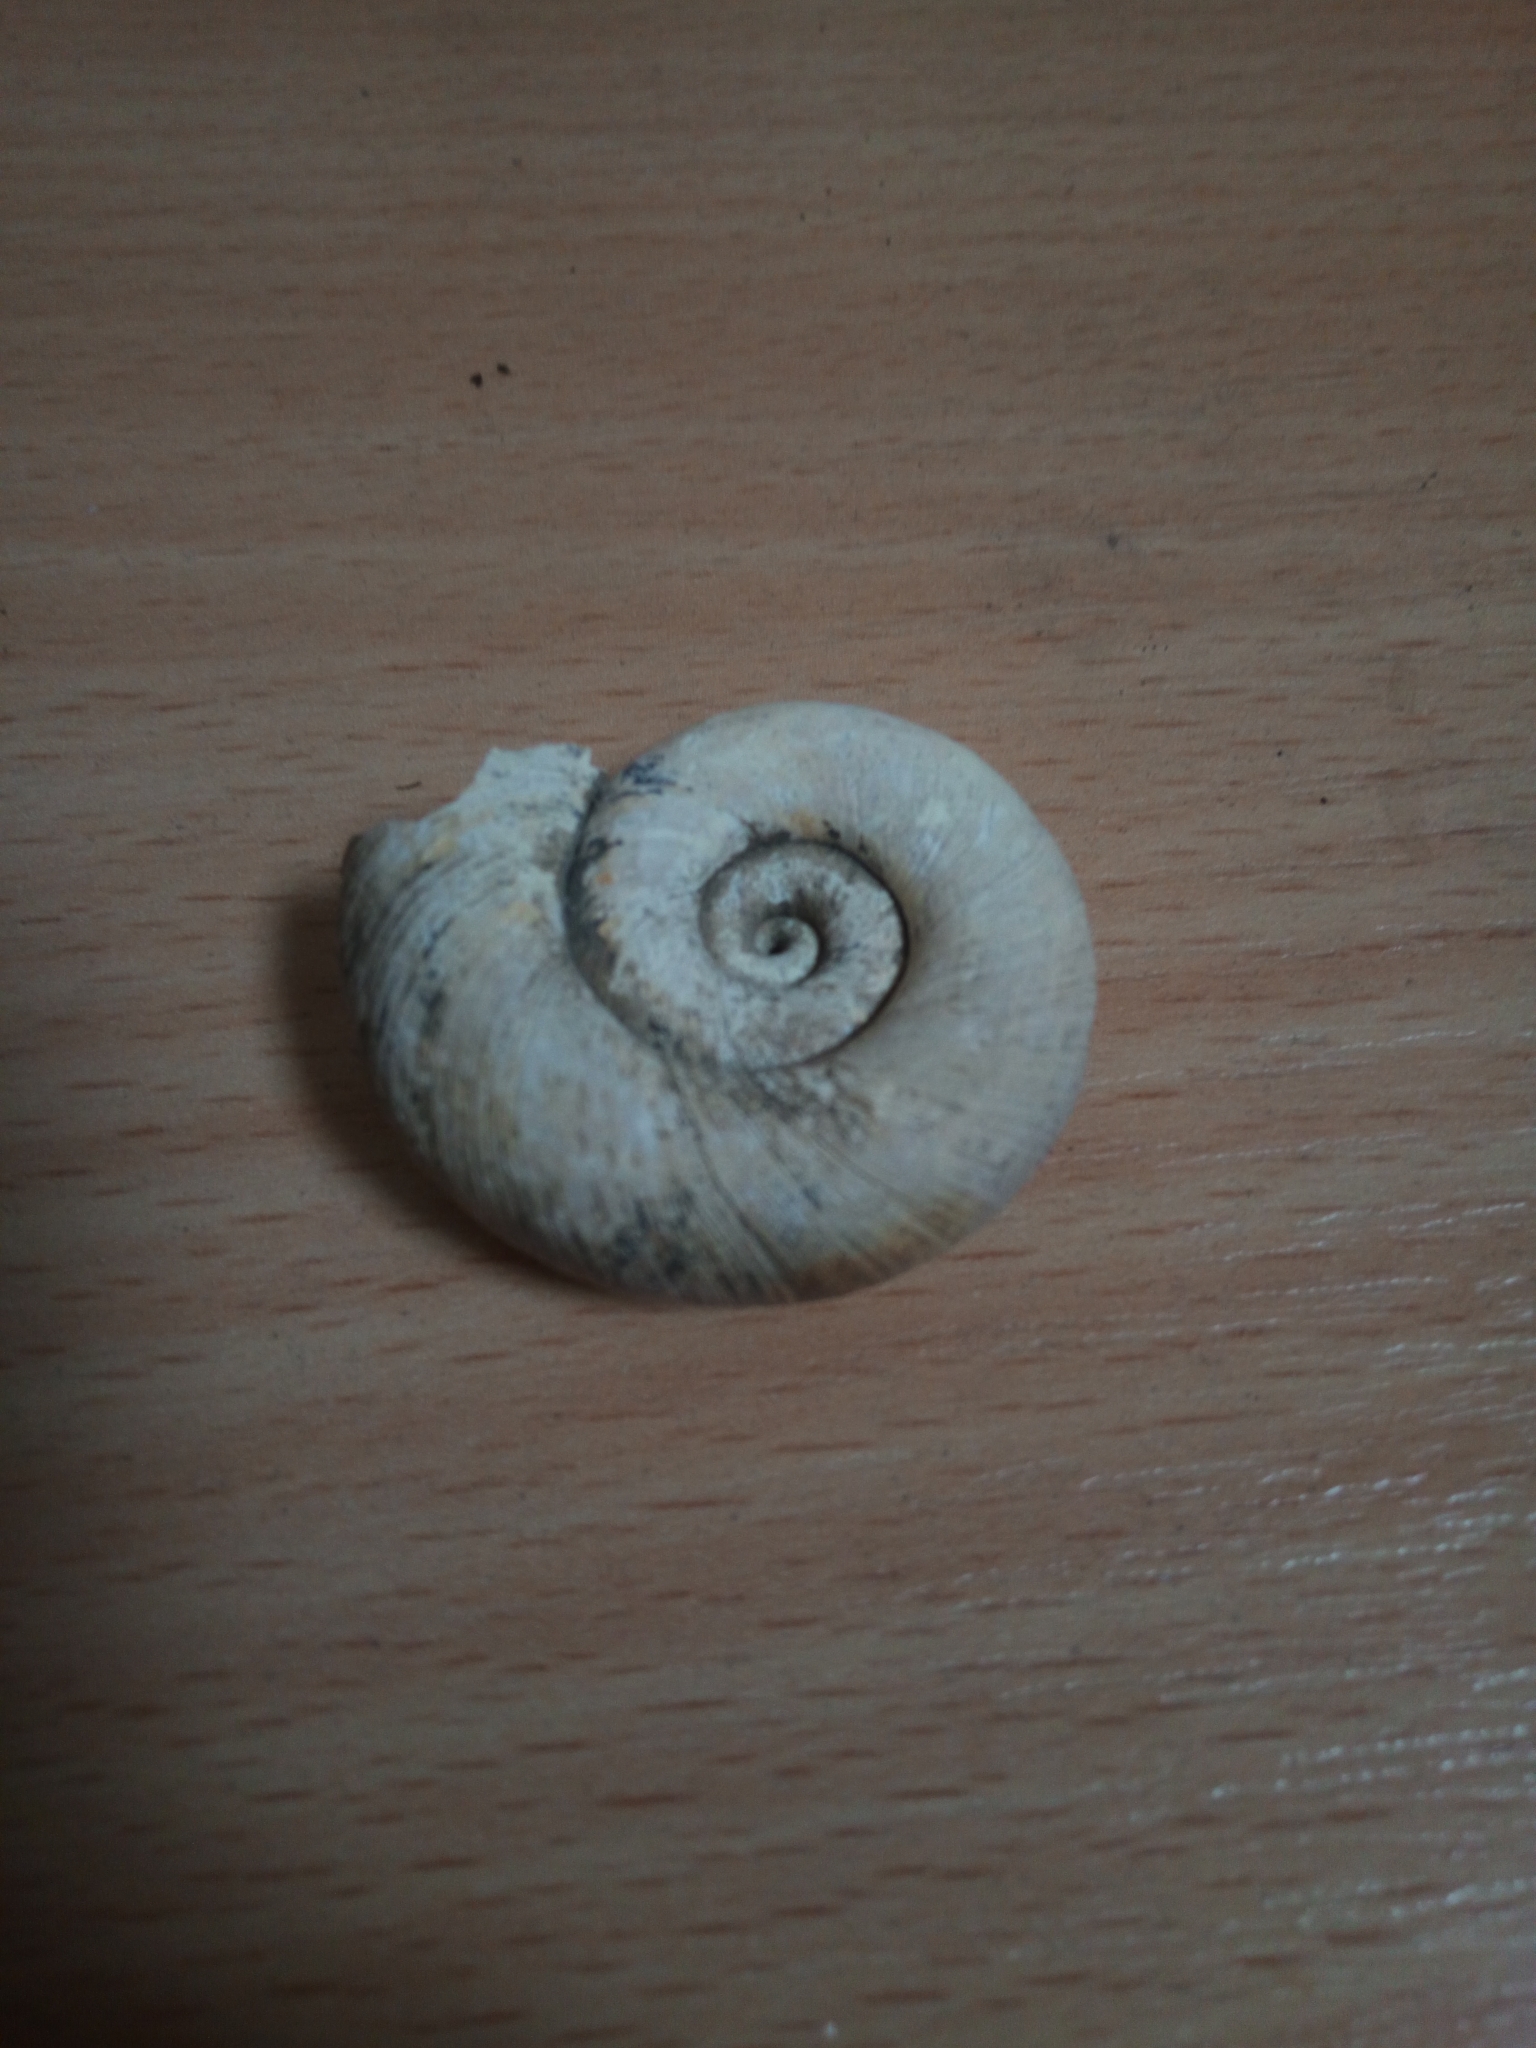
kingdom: Animalia
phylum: Mollusca
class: Gastropoda
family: Planorbidae
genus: Planorbarius
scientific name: Planorbarius corneus
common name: Great ramshorn
